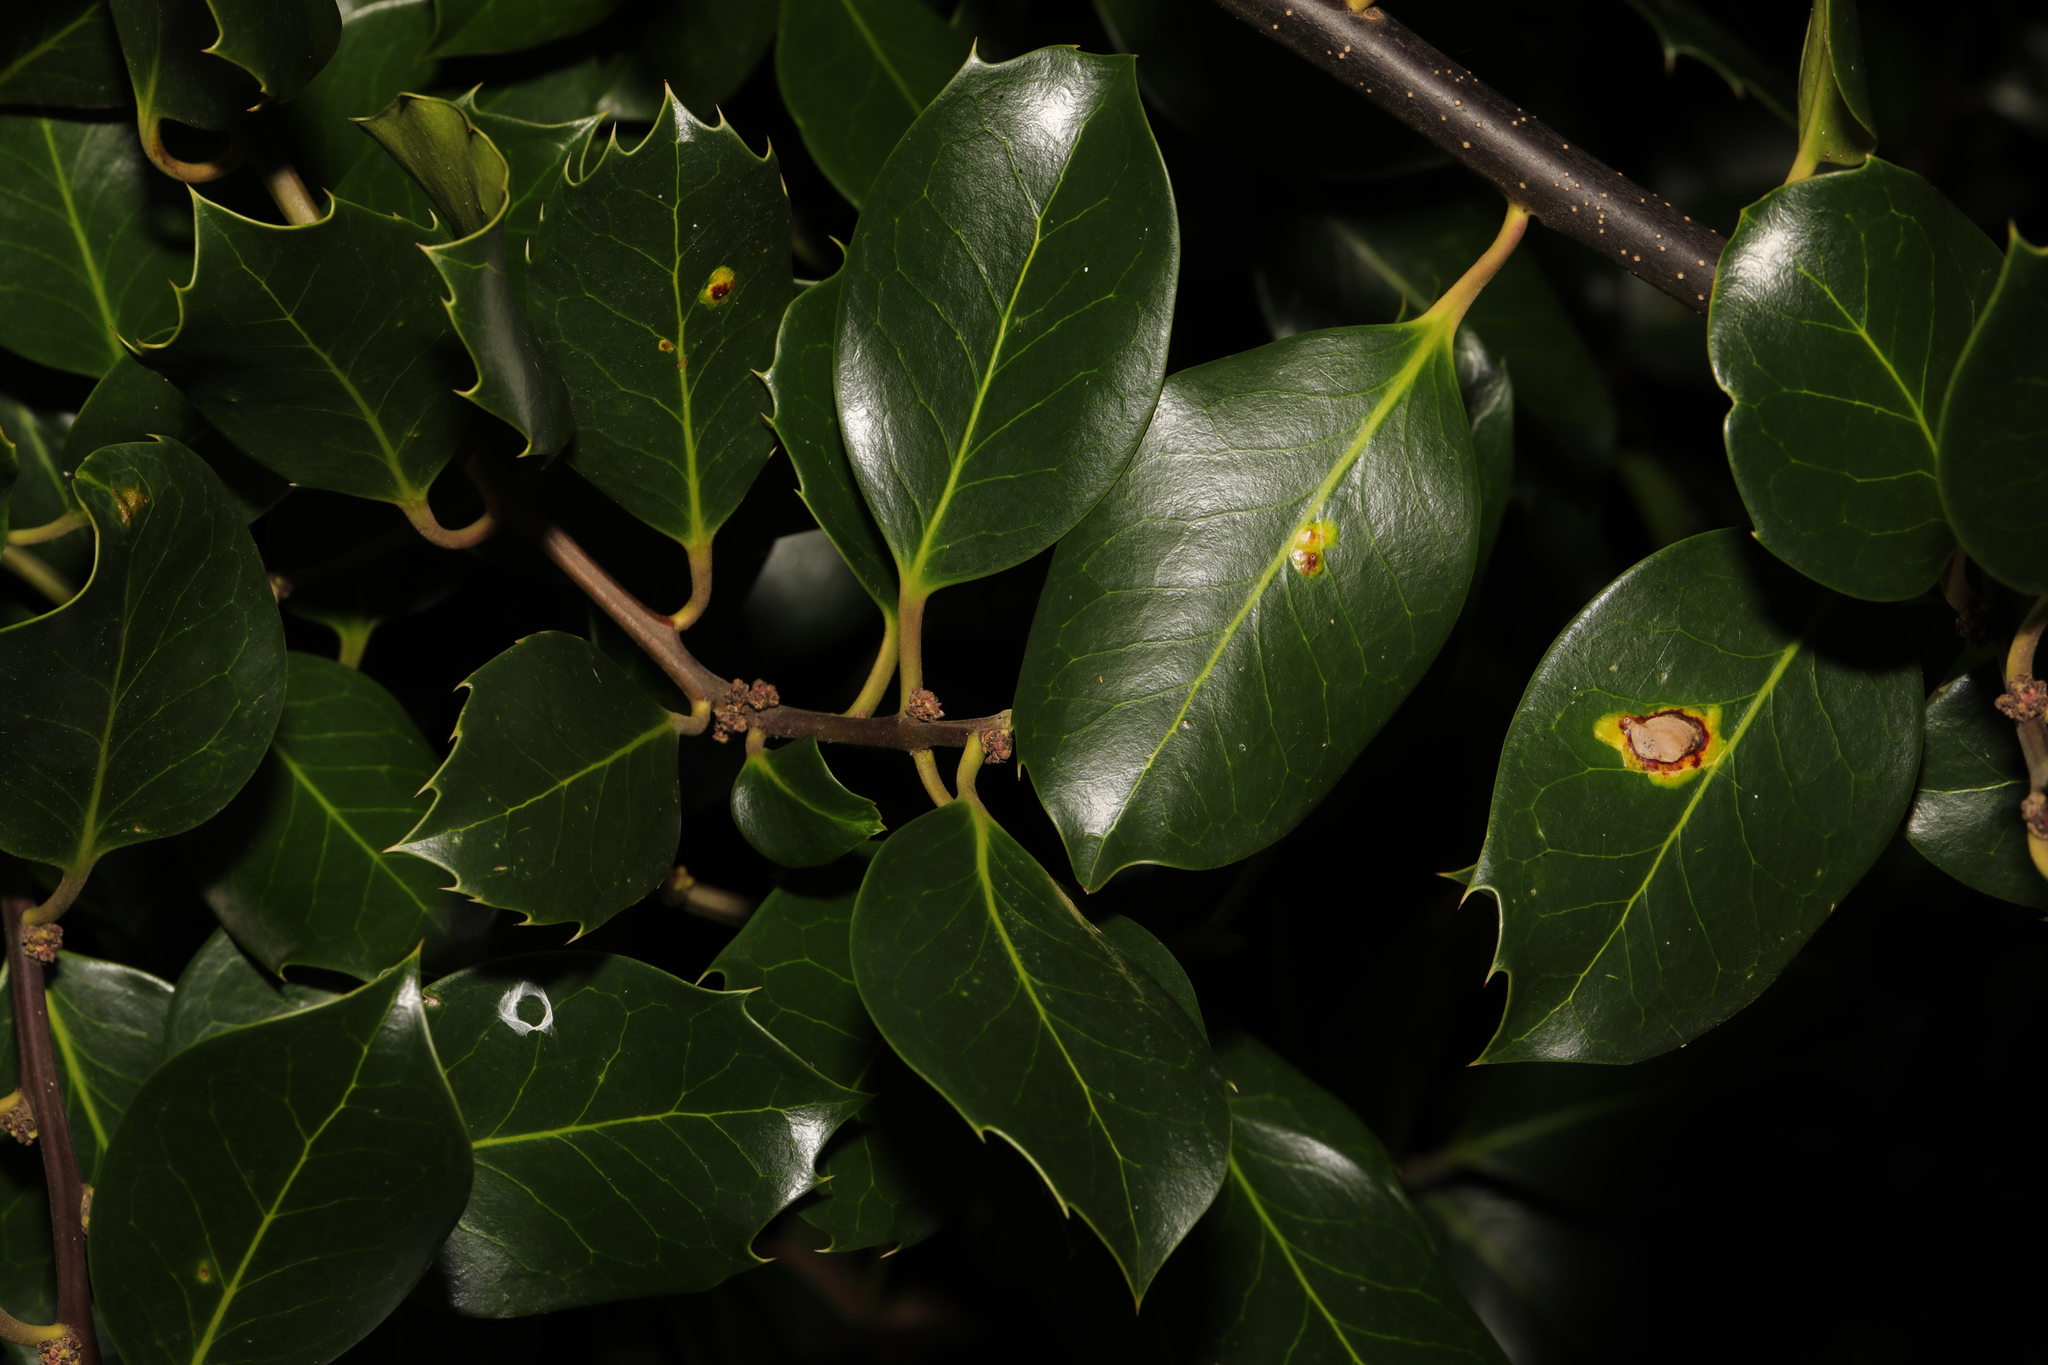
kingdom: Plantae
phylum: Tracheophyta
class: Magnoliopsida
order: Aquifoliales
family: Aquifoliaceae
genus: Ilex
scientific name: Ilex aquifolium
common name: English holly
